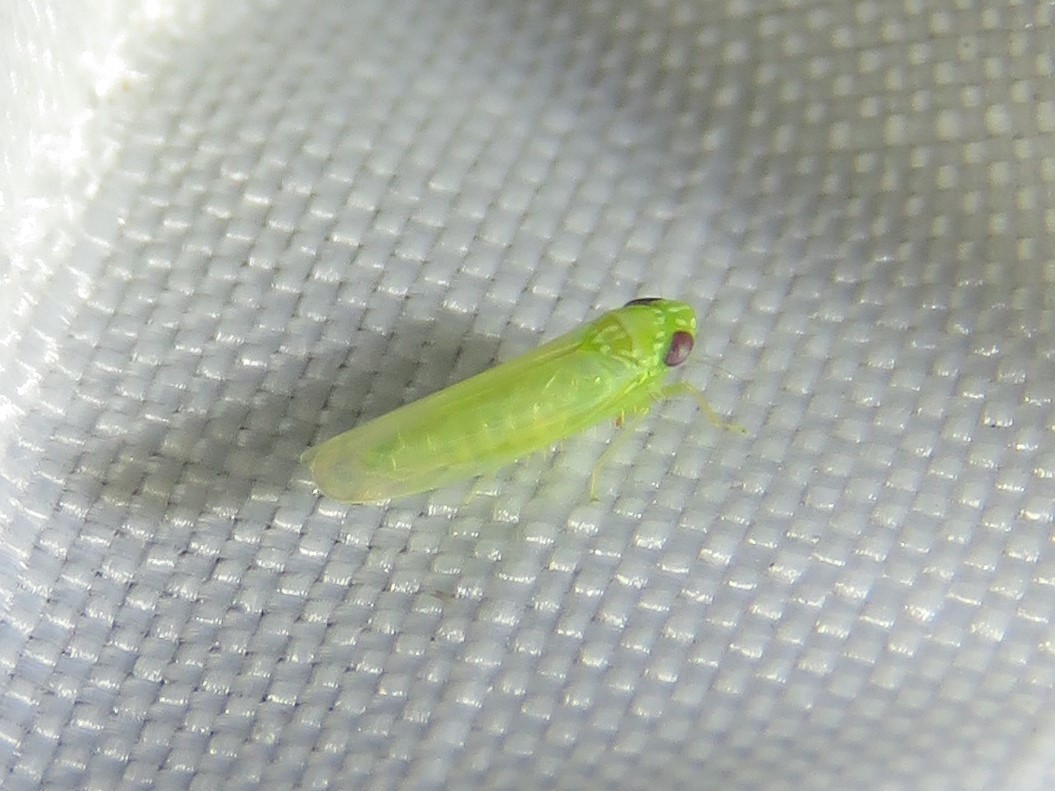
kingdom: Animalia
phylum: Arthropoda
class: Insecta
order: Hemiptera
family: Cicadellidae
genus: Empoasca
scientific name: Empoasca fabae
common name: Potato leafhopper
